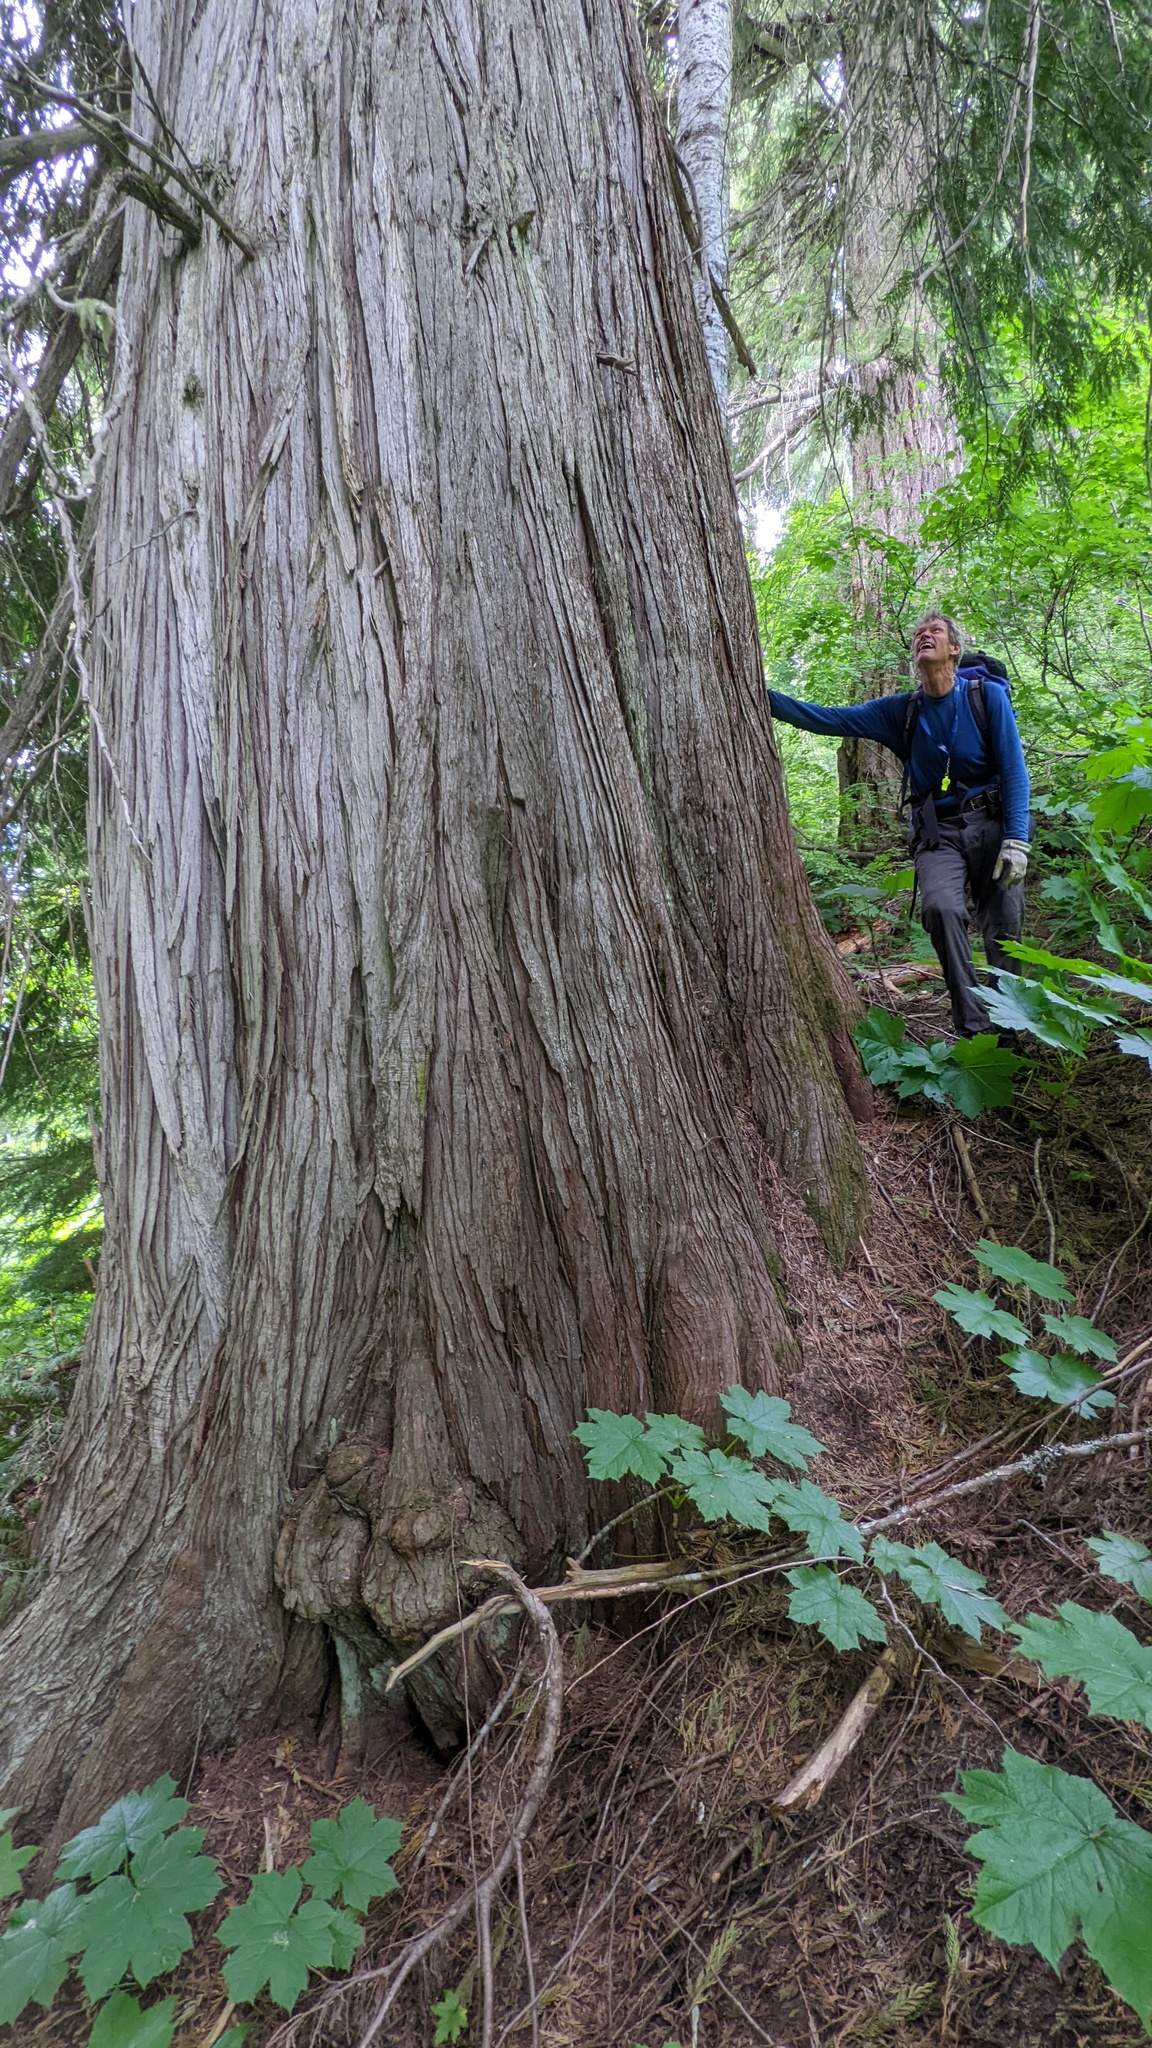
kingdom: Plantae
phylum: Tracheophyta
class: Pinopsida
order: Pinales
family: Cupressaceae
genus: Thuja
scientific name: Thuja plicata
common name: Western red-cedar
